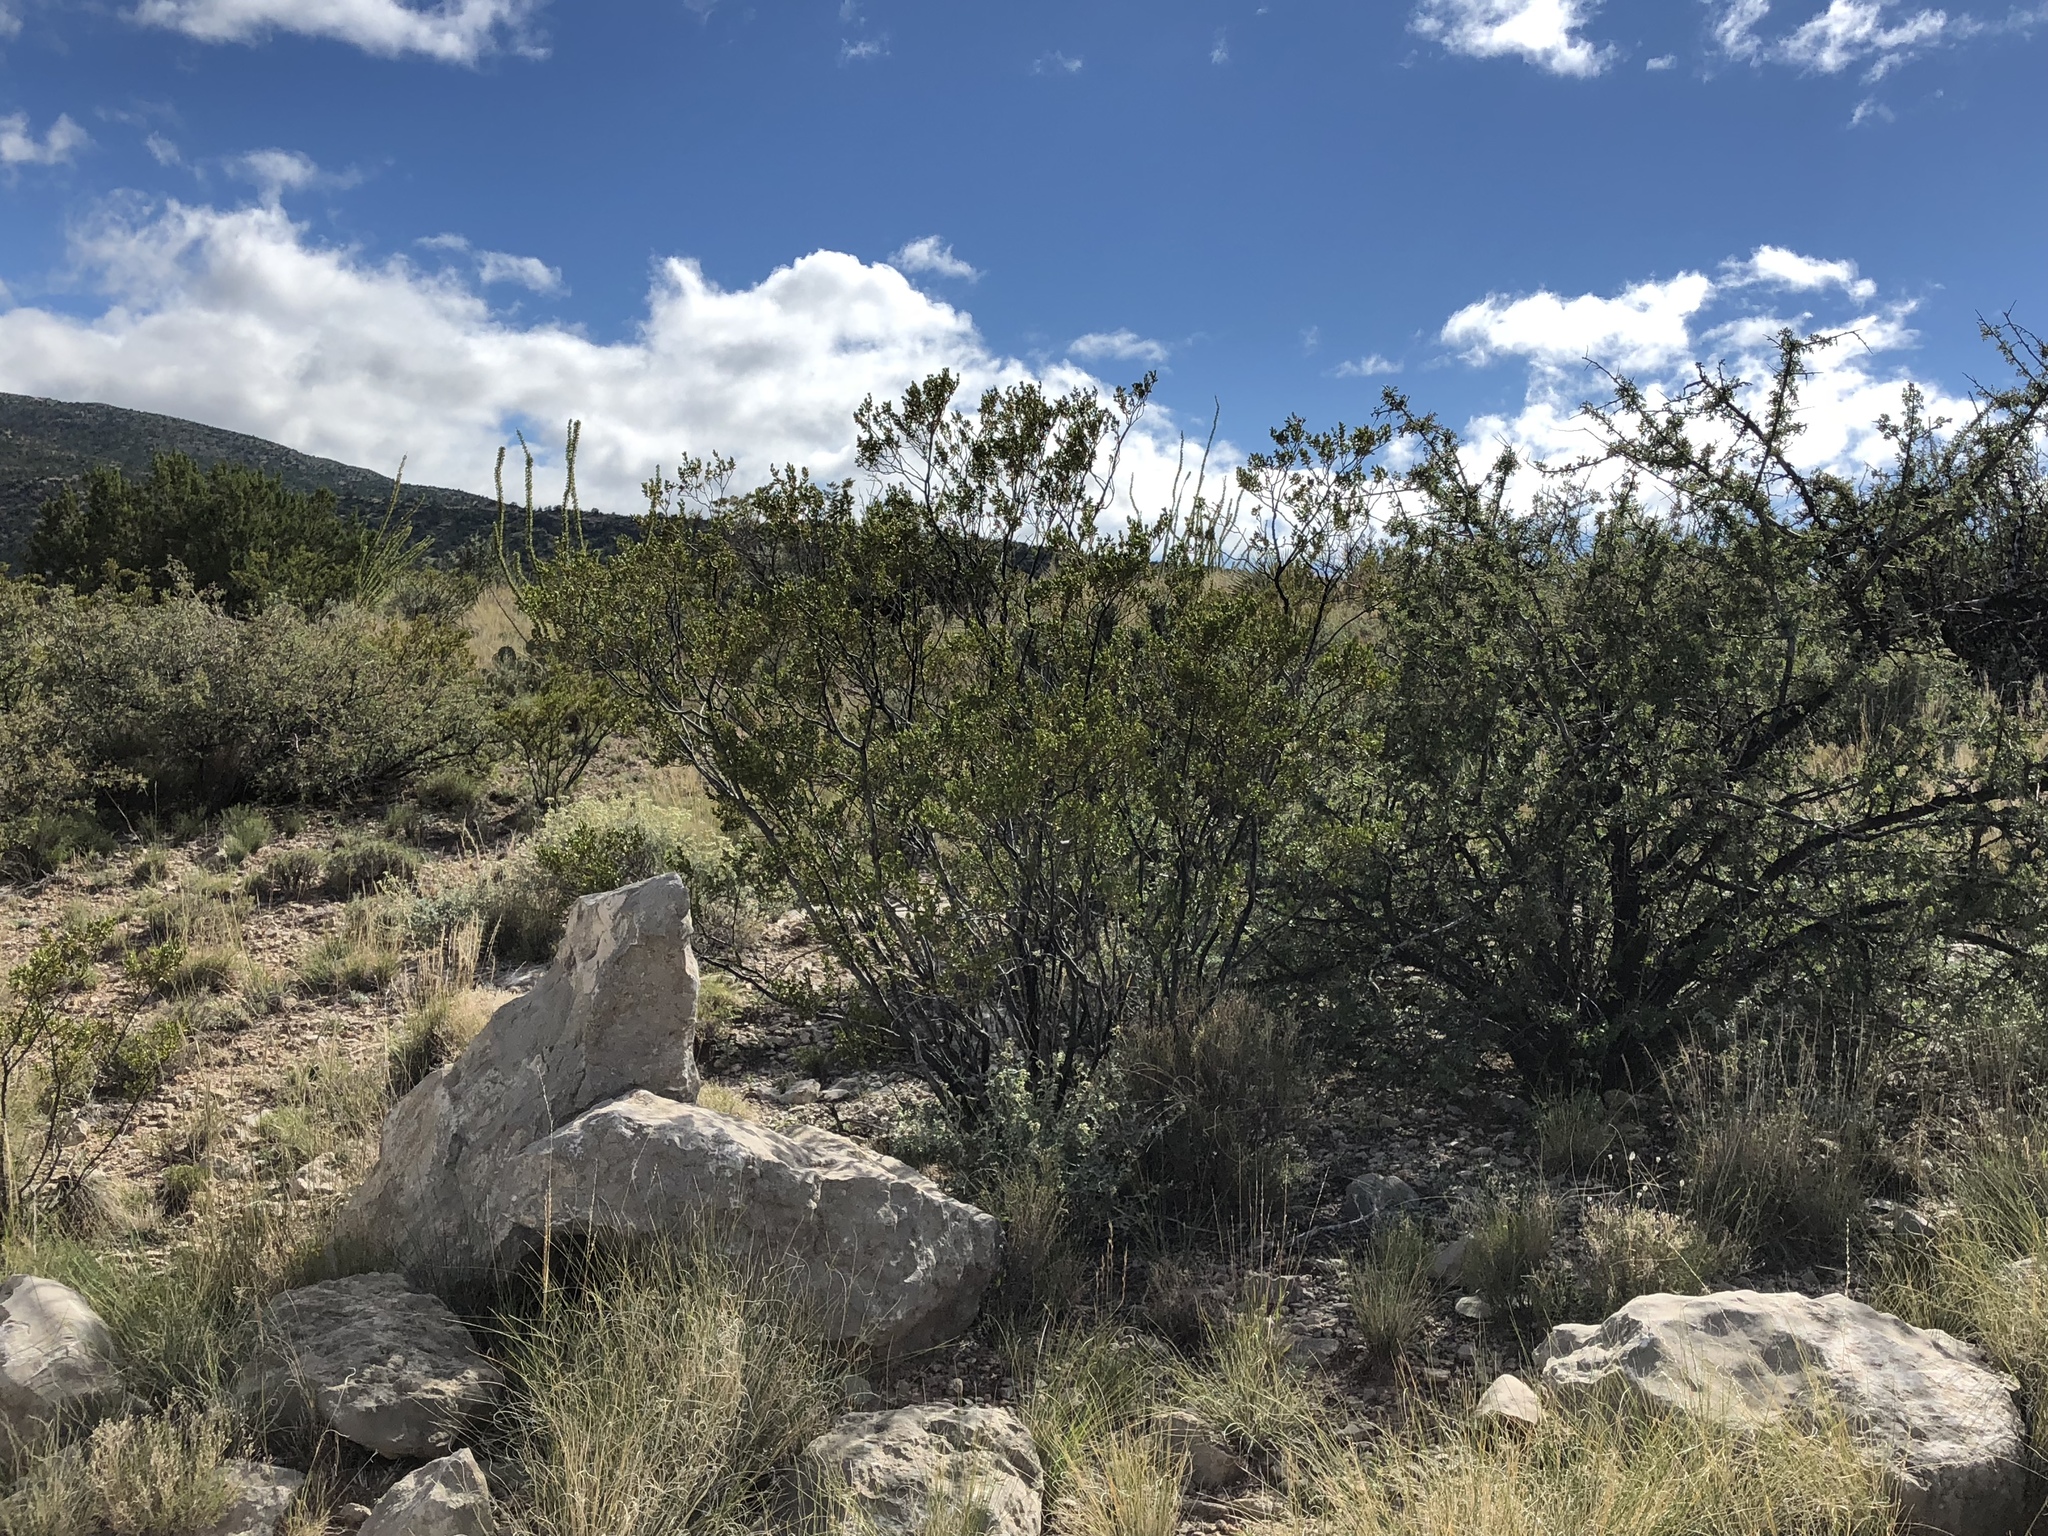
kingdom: Plantae
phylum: Tracheophyta
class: Magnoliopsida
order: Zygophyllales
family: Zygophyllaceae
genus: Larrea
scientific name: Larrea tridentata
